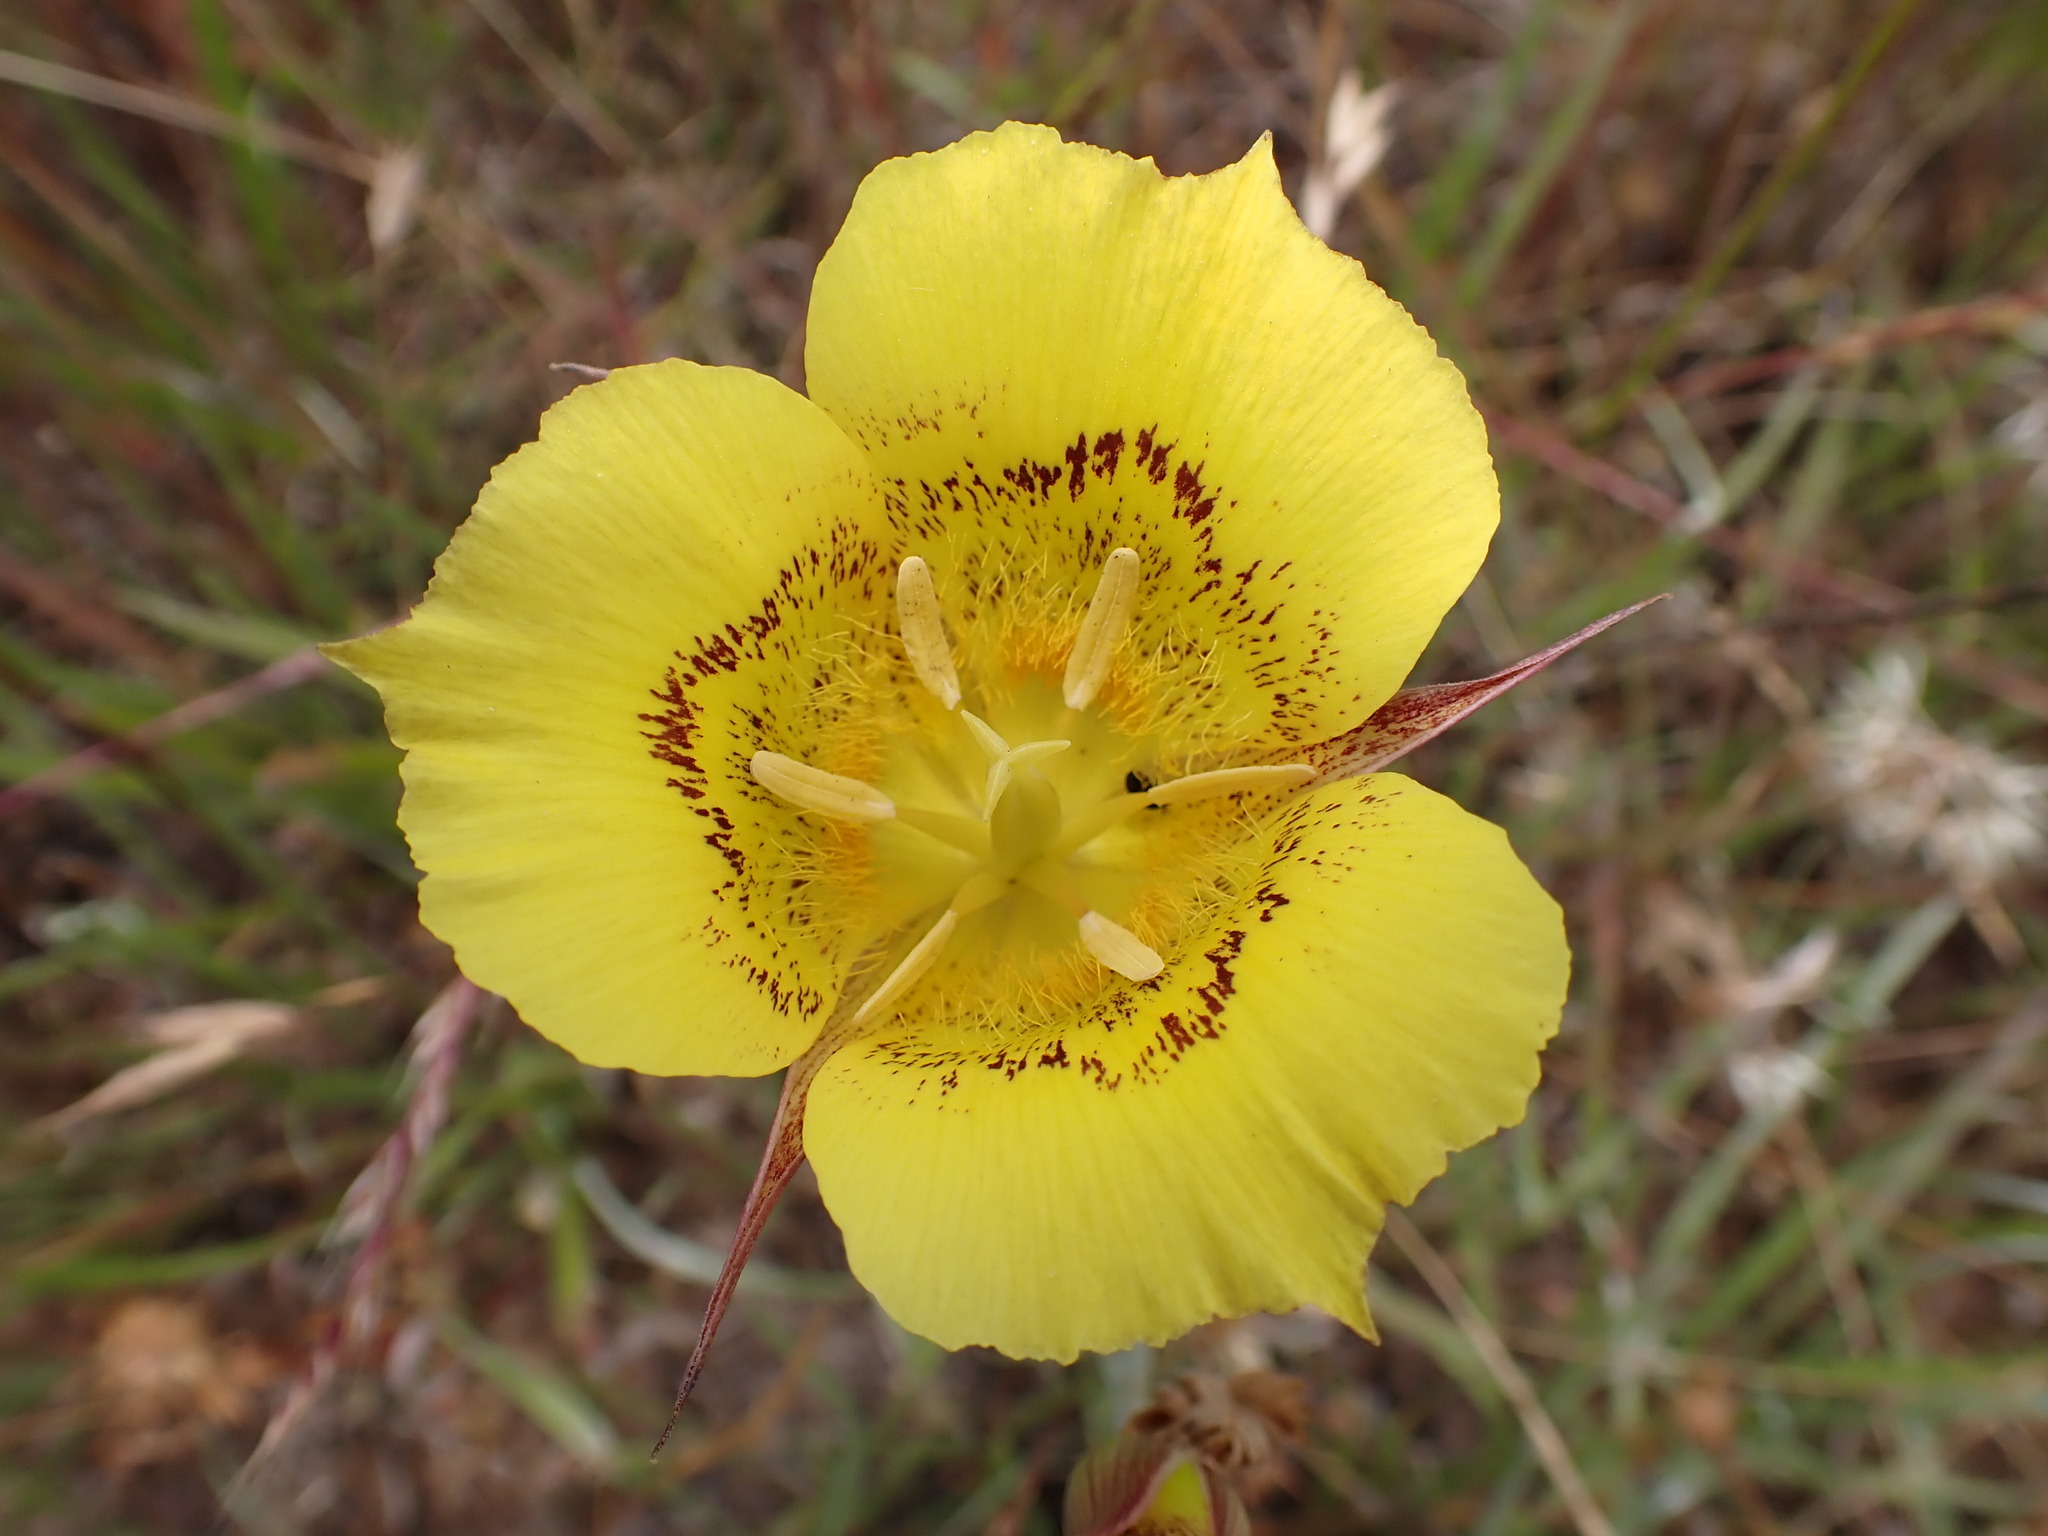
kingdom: Plantae
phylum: Tracheophyta
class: Liliopsida
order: Liliales
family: Liliaceae
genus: Calochortus
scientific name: Calochortus luteus
